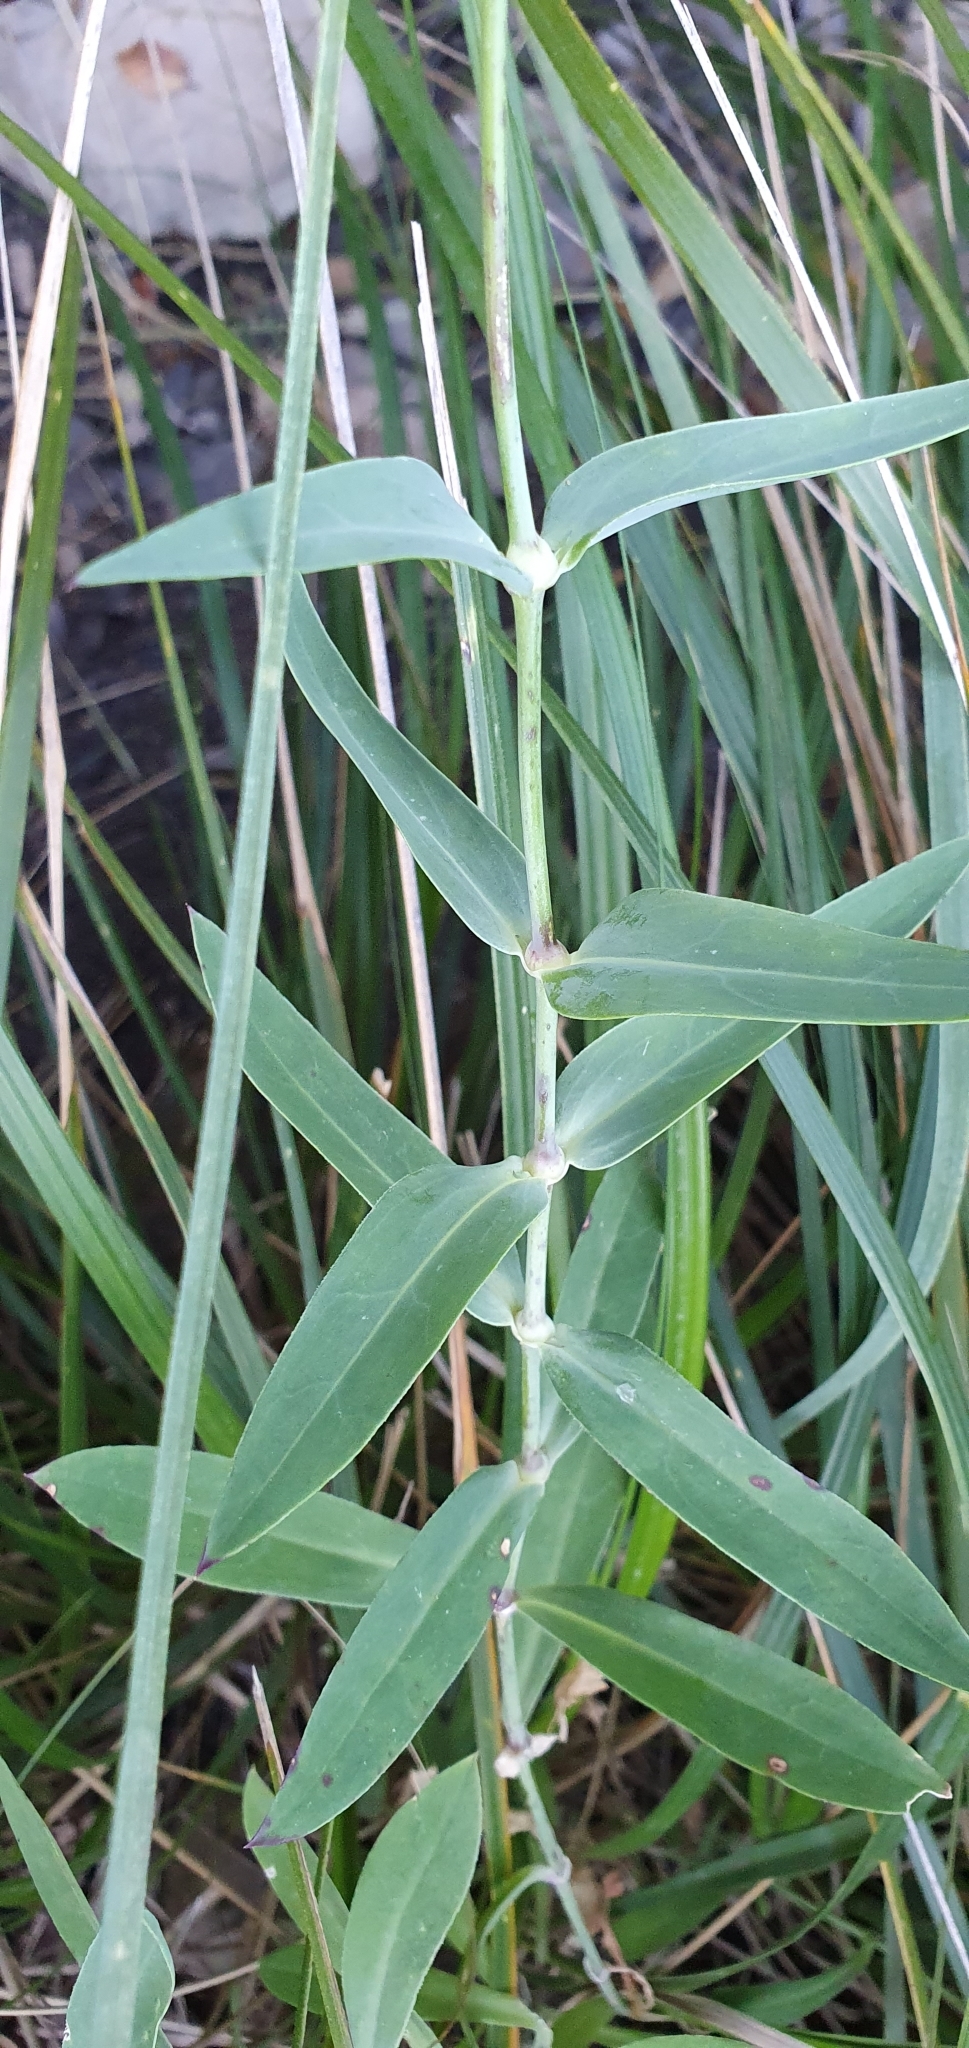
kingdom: Plantae
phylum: Tracheophyta
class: Magnoliopsida
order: Caryophyllales
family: Caryophyllaceae
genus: Silene
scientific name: Silene vulgaris
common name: Bladder campion
